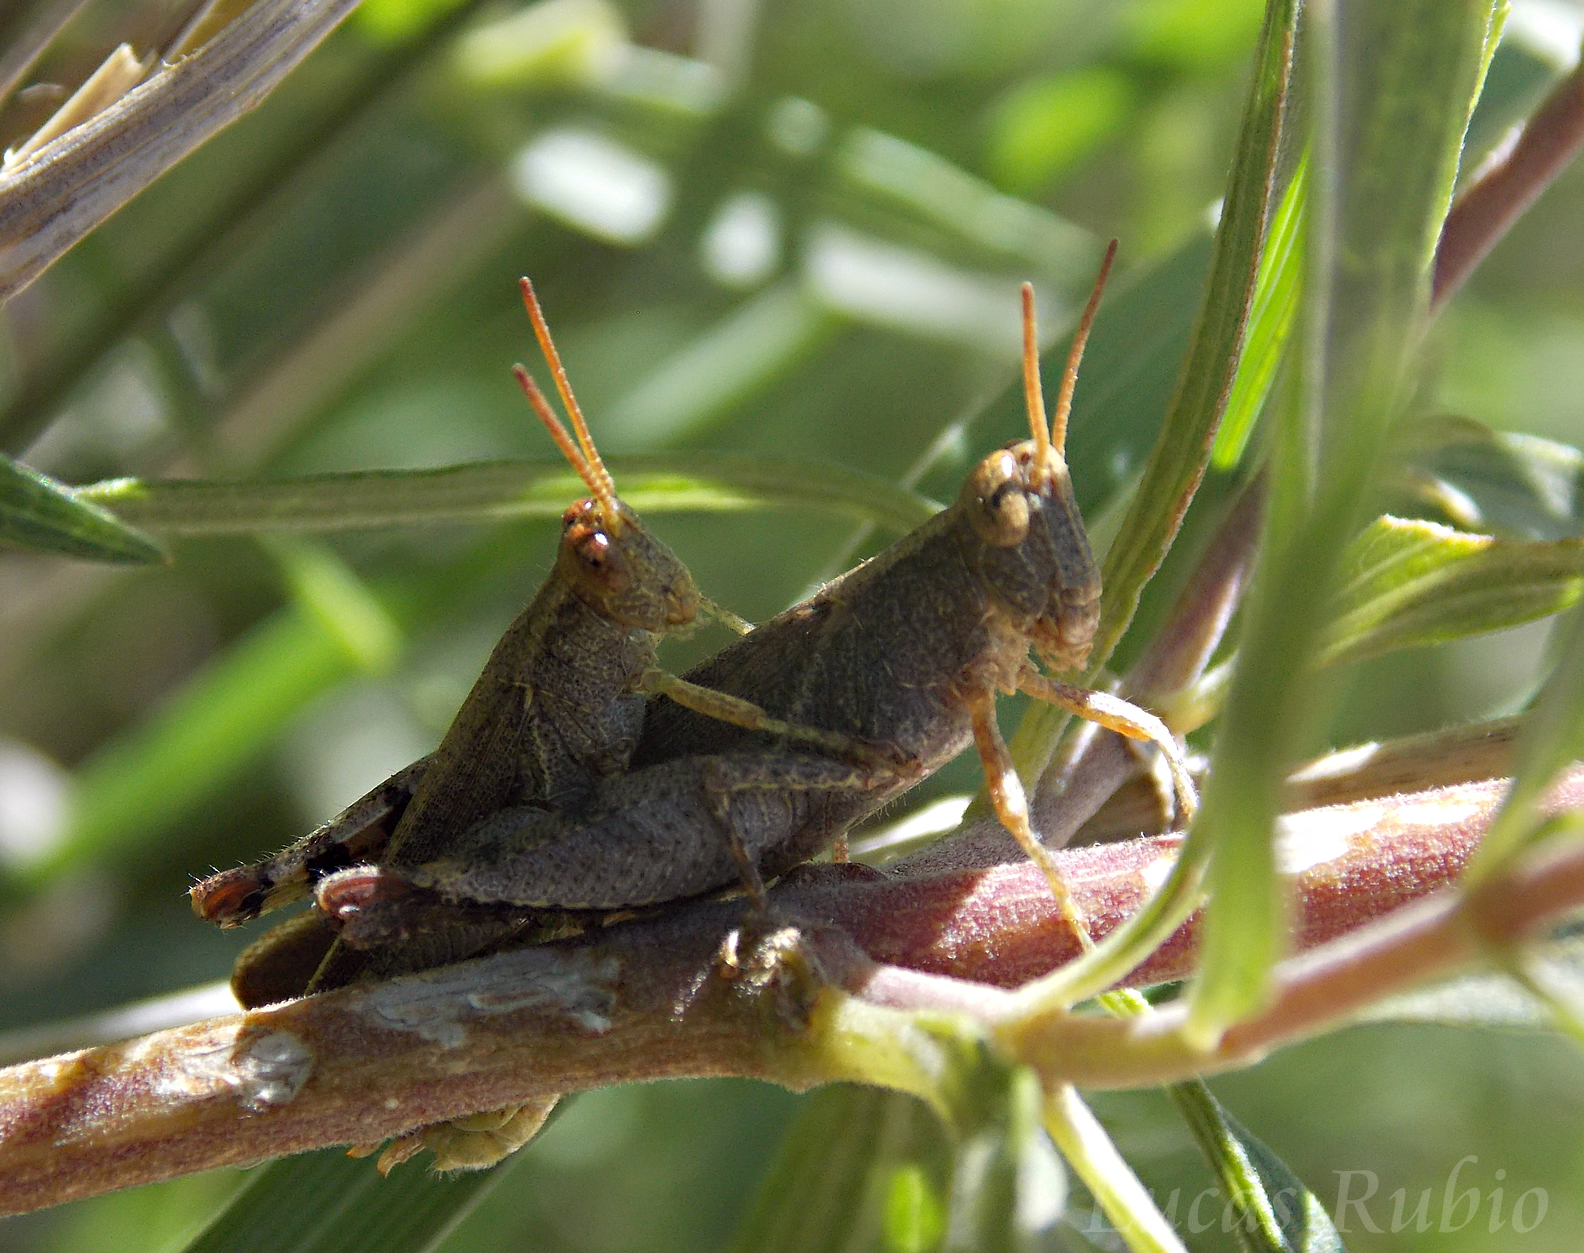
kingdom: Animalia
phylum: Arthropoda
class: Insecta
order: Orthoptera
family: Acrididae
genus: Abracris
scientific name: Abracris dilecta
